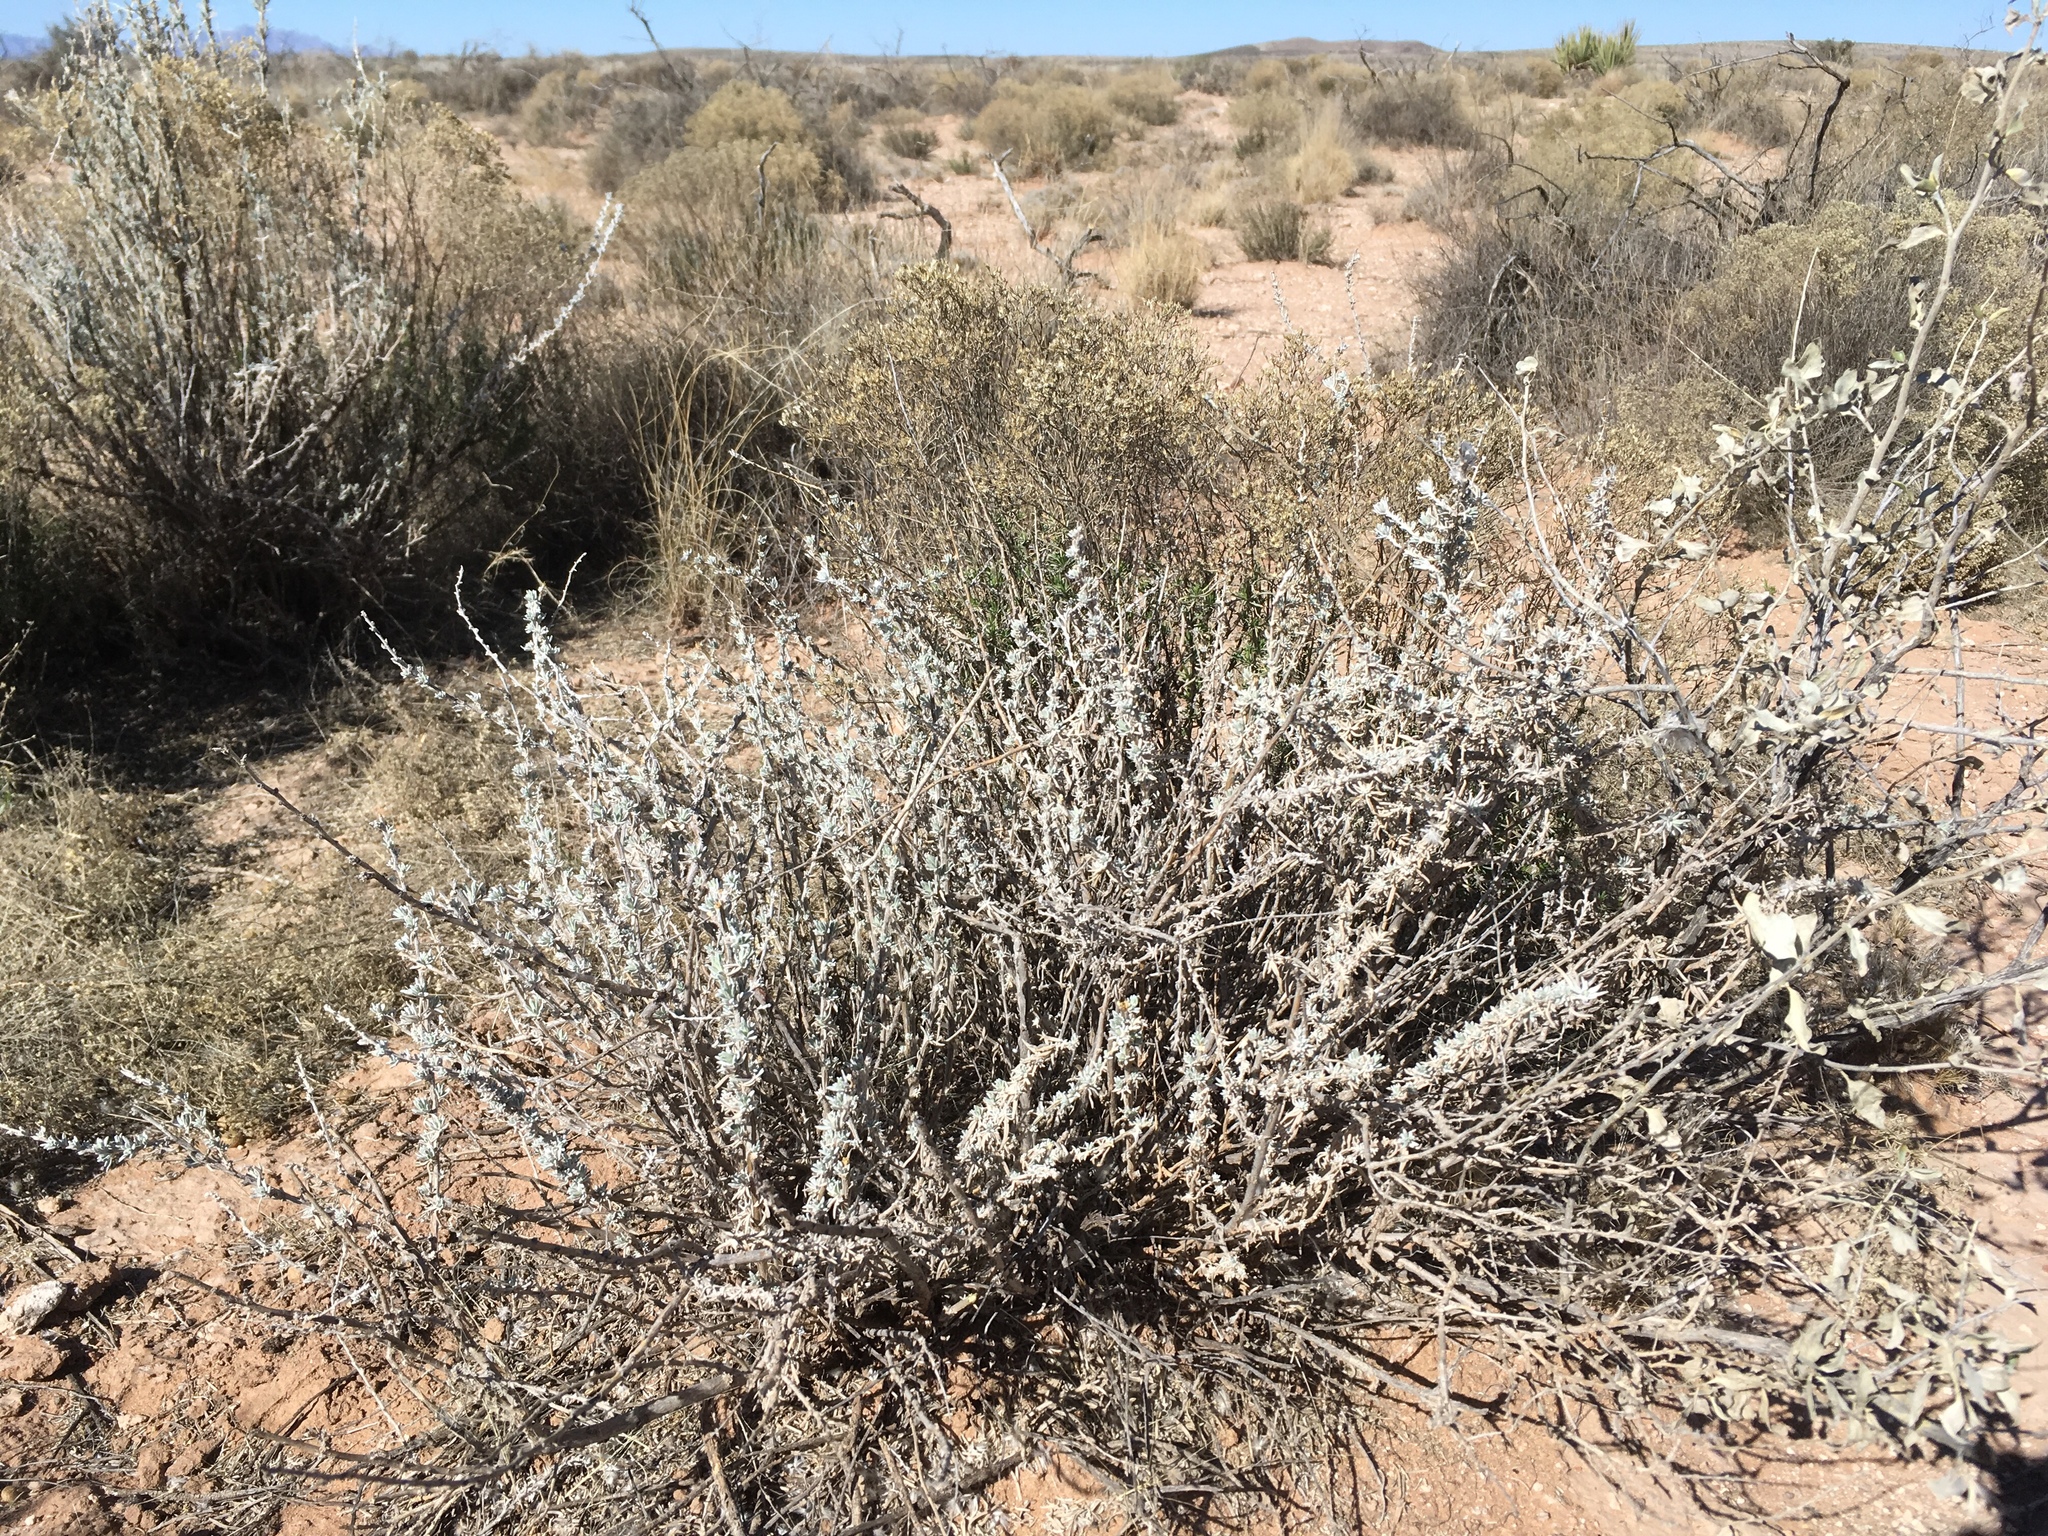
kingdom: Plantae
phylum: Tracheophyta
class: Magnoliopsida
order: Caryophyllales
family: Amaranthaceae
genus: Krascheninnikovia
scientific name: Krascheninnikovia lanata
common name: Winterfat
